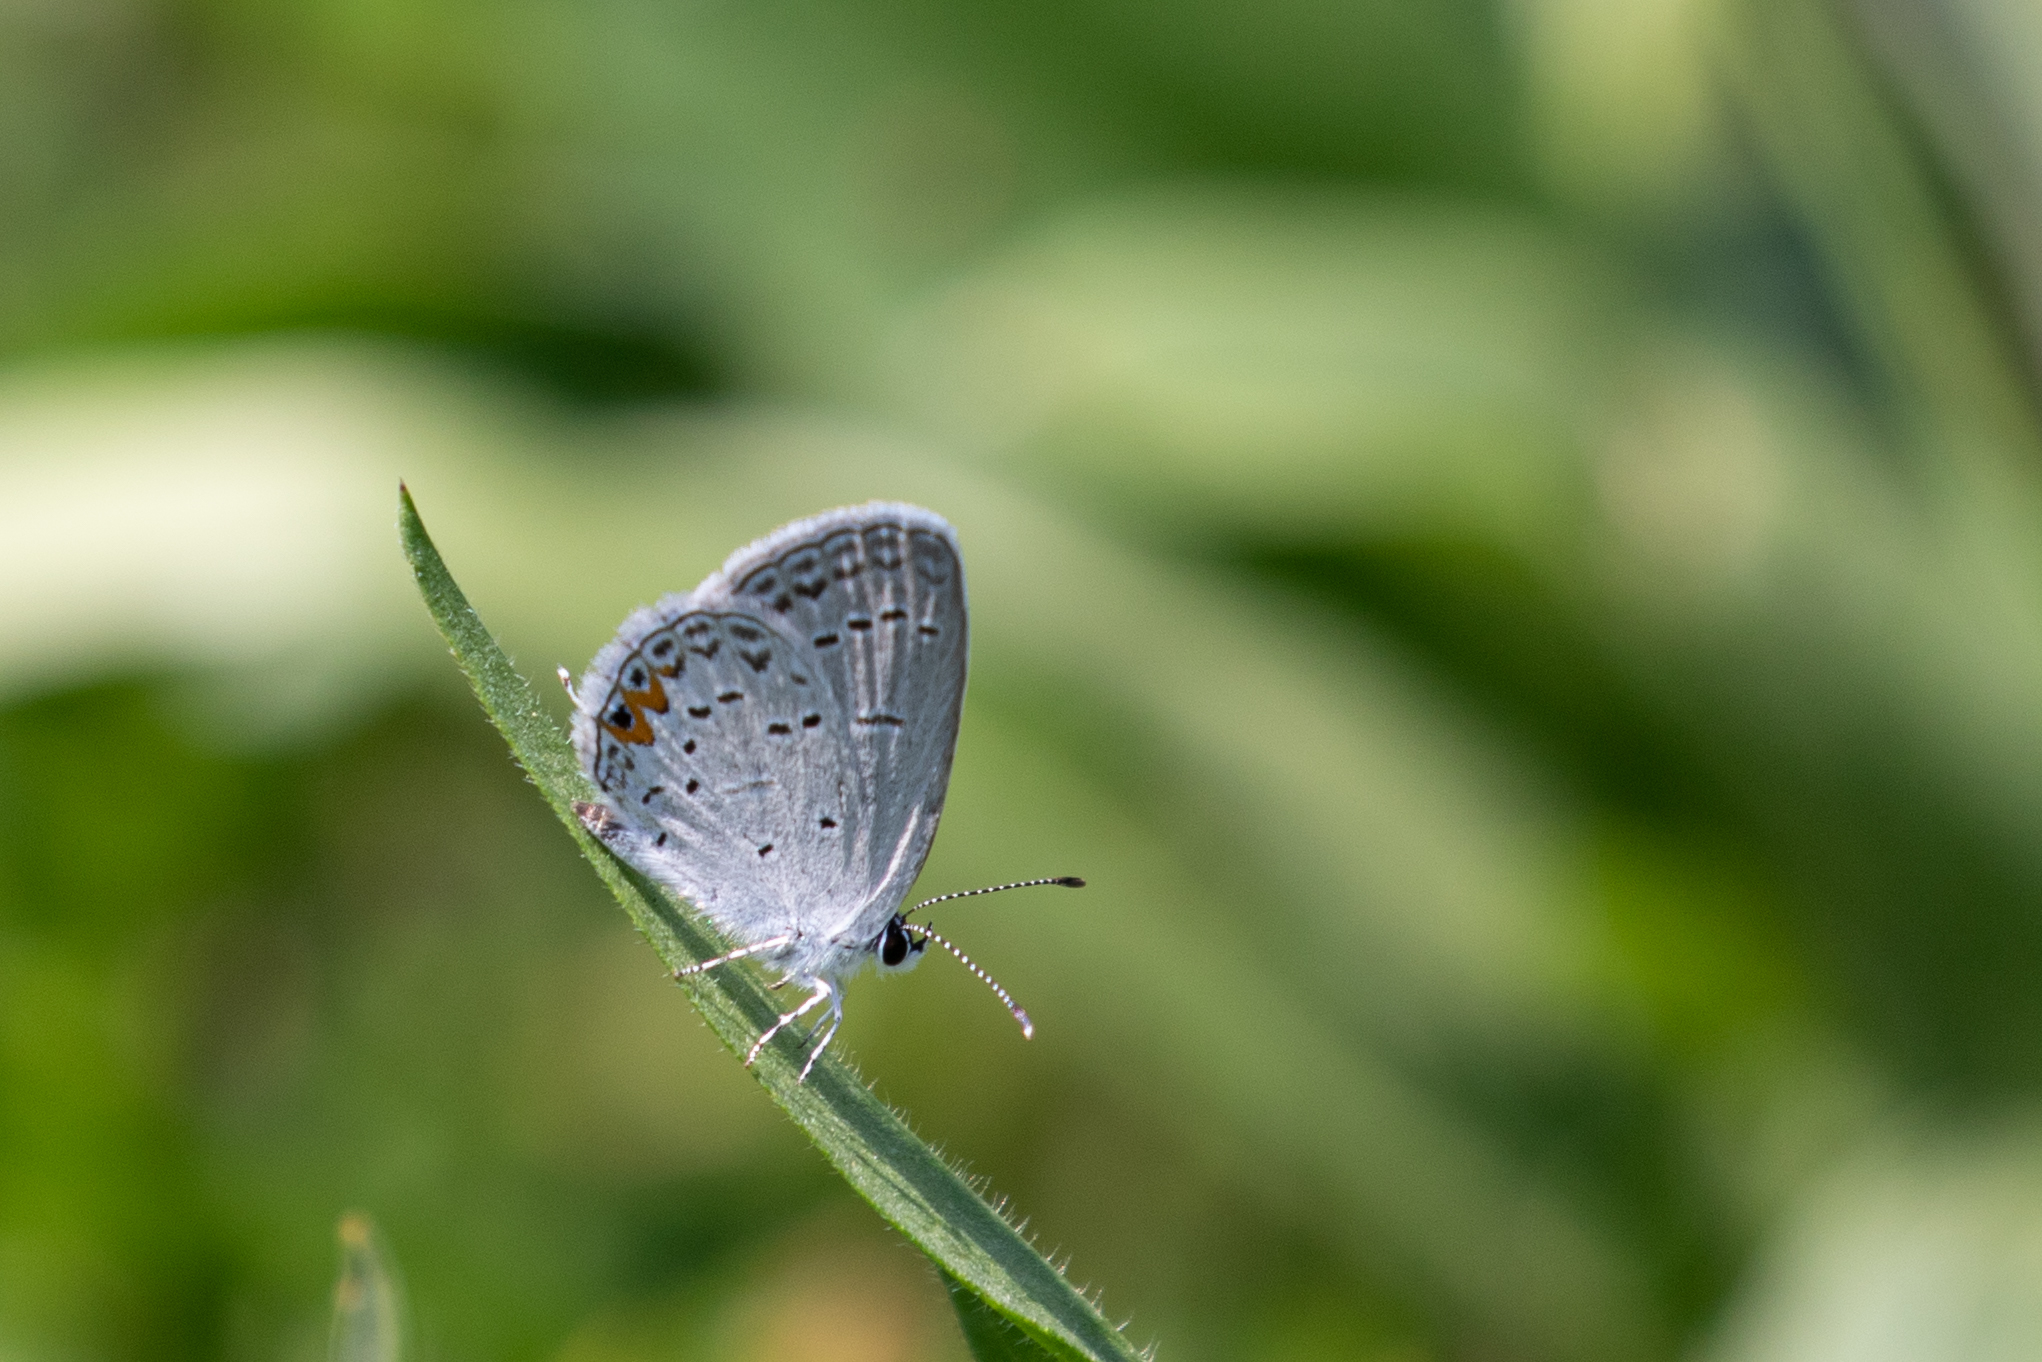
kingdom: Animalia
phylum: Arthropoda
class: Insecta
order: Lepidoptera
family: Lycaenidae
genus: Elkalyce
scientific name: Elkalyce comyntas
